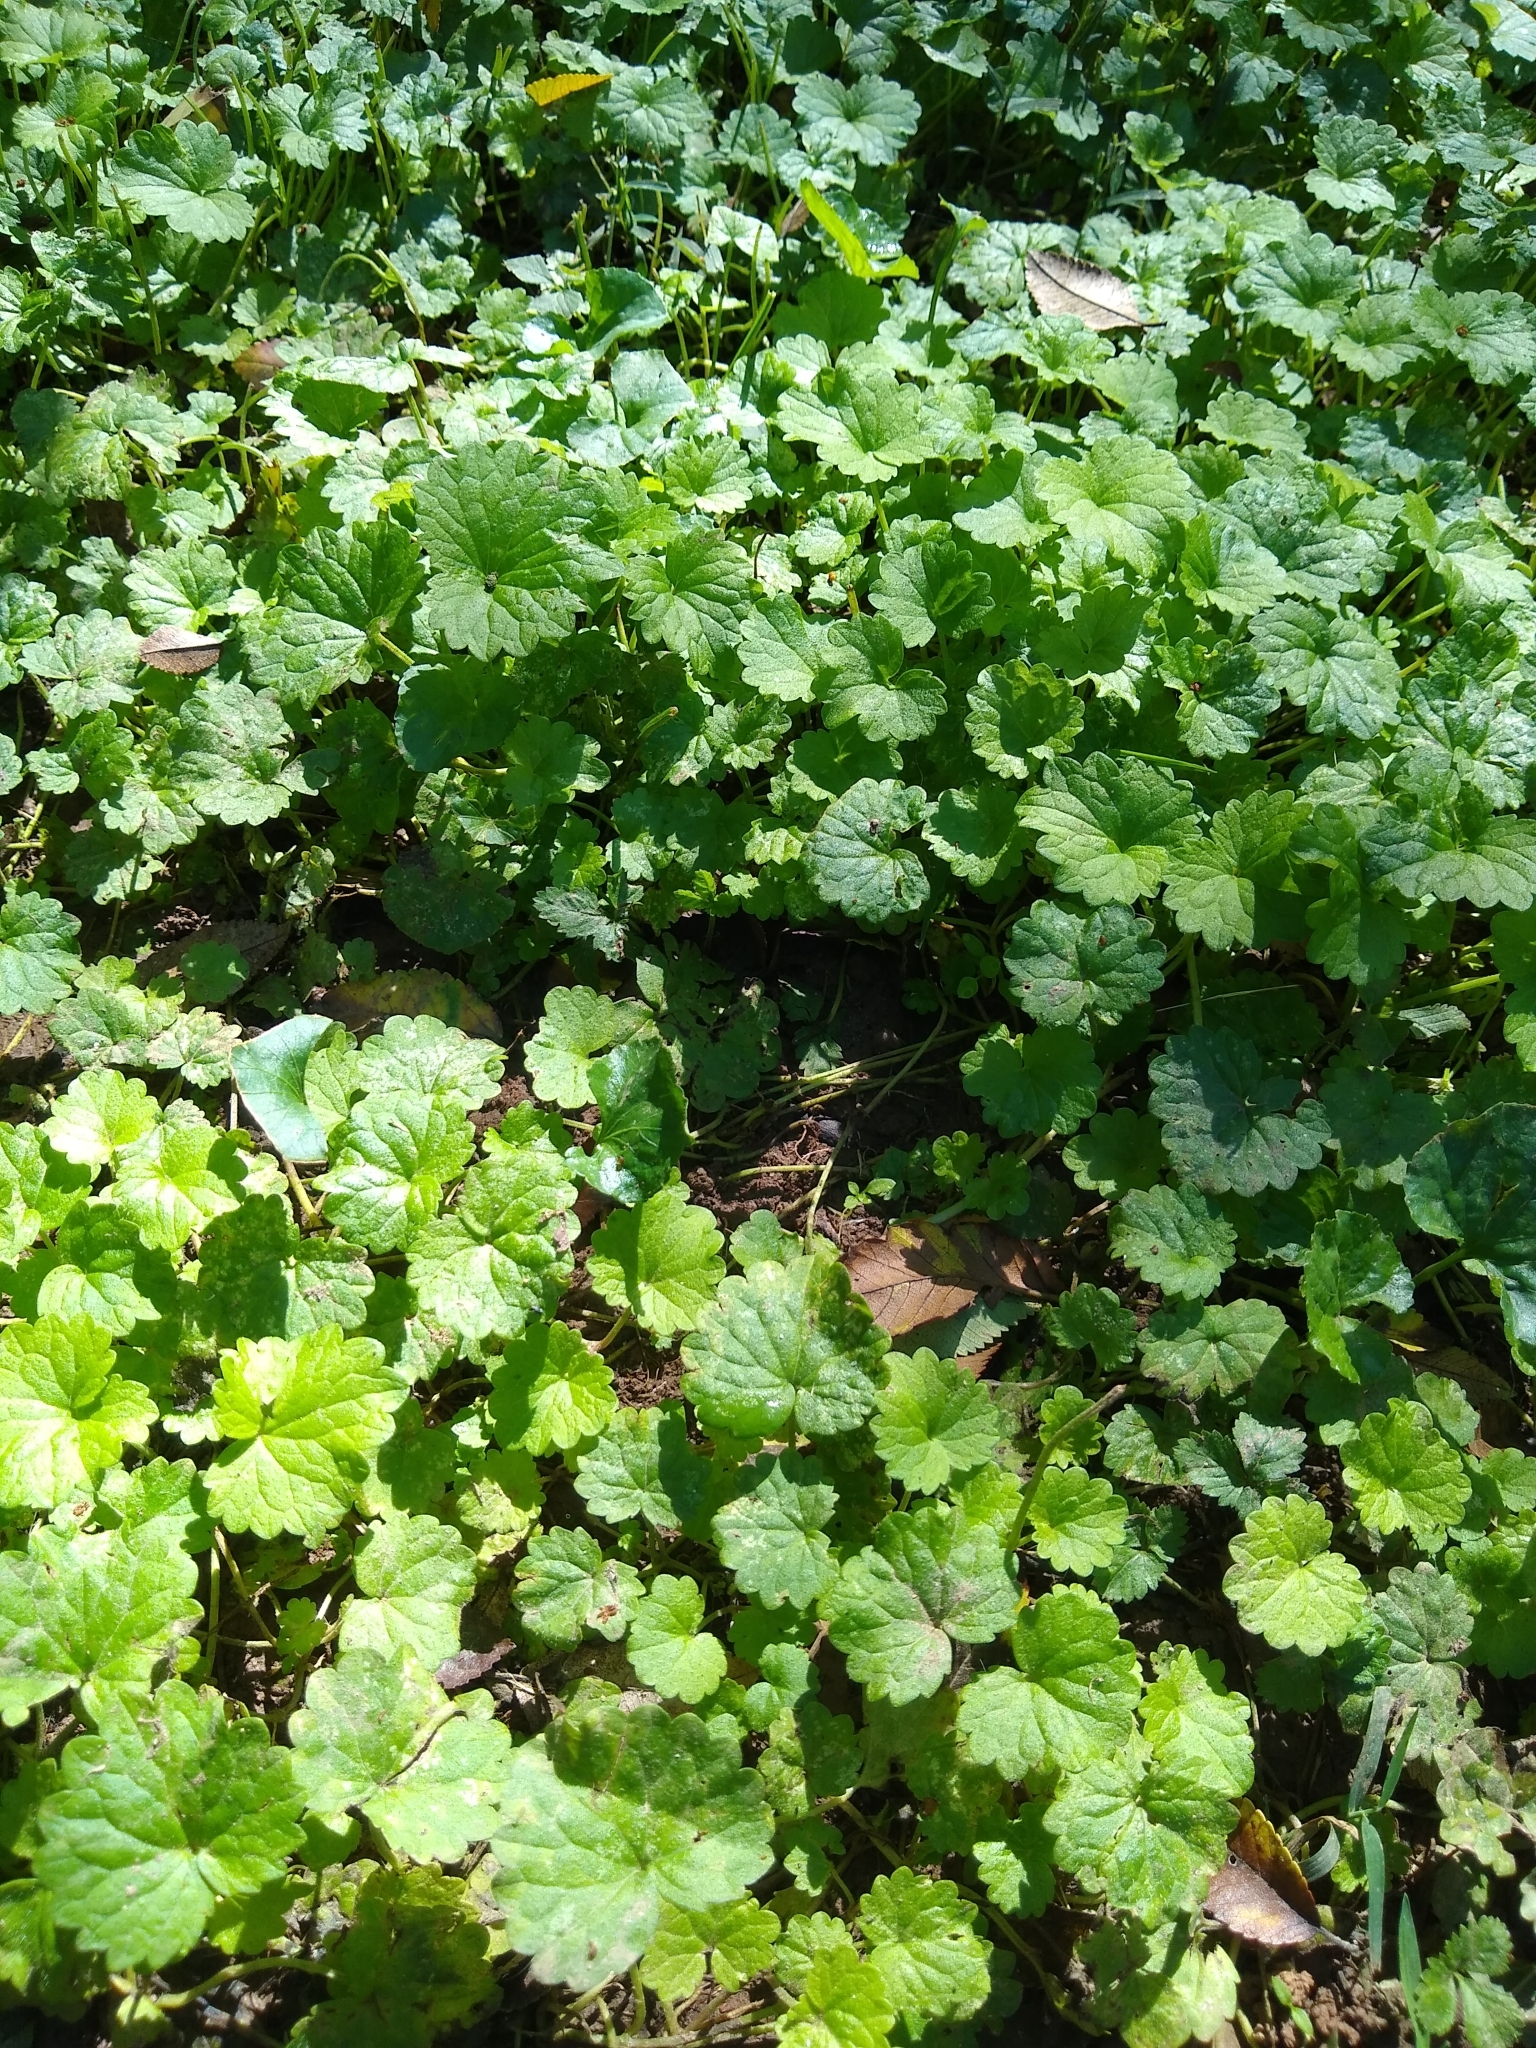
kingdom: Plantae
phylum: Tracheophyta
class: Magnoliopsida
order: Lamiales
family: Lamiaceae
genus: Glechoma
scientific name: Glechoma hederacea
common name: Ground ivy
